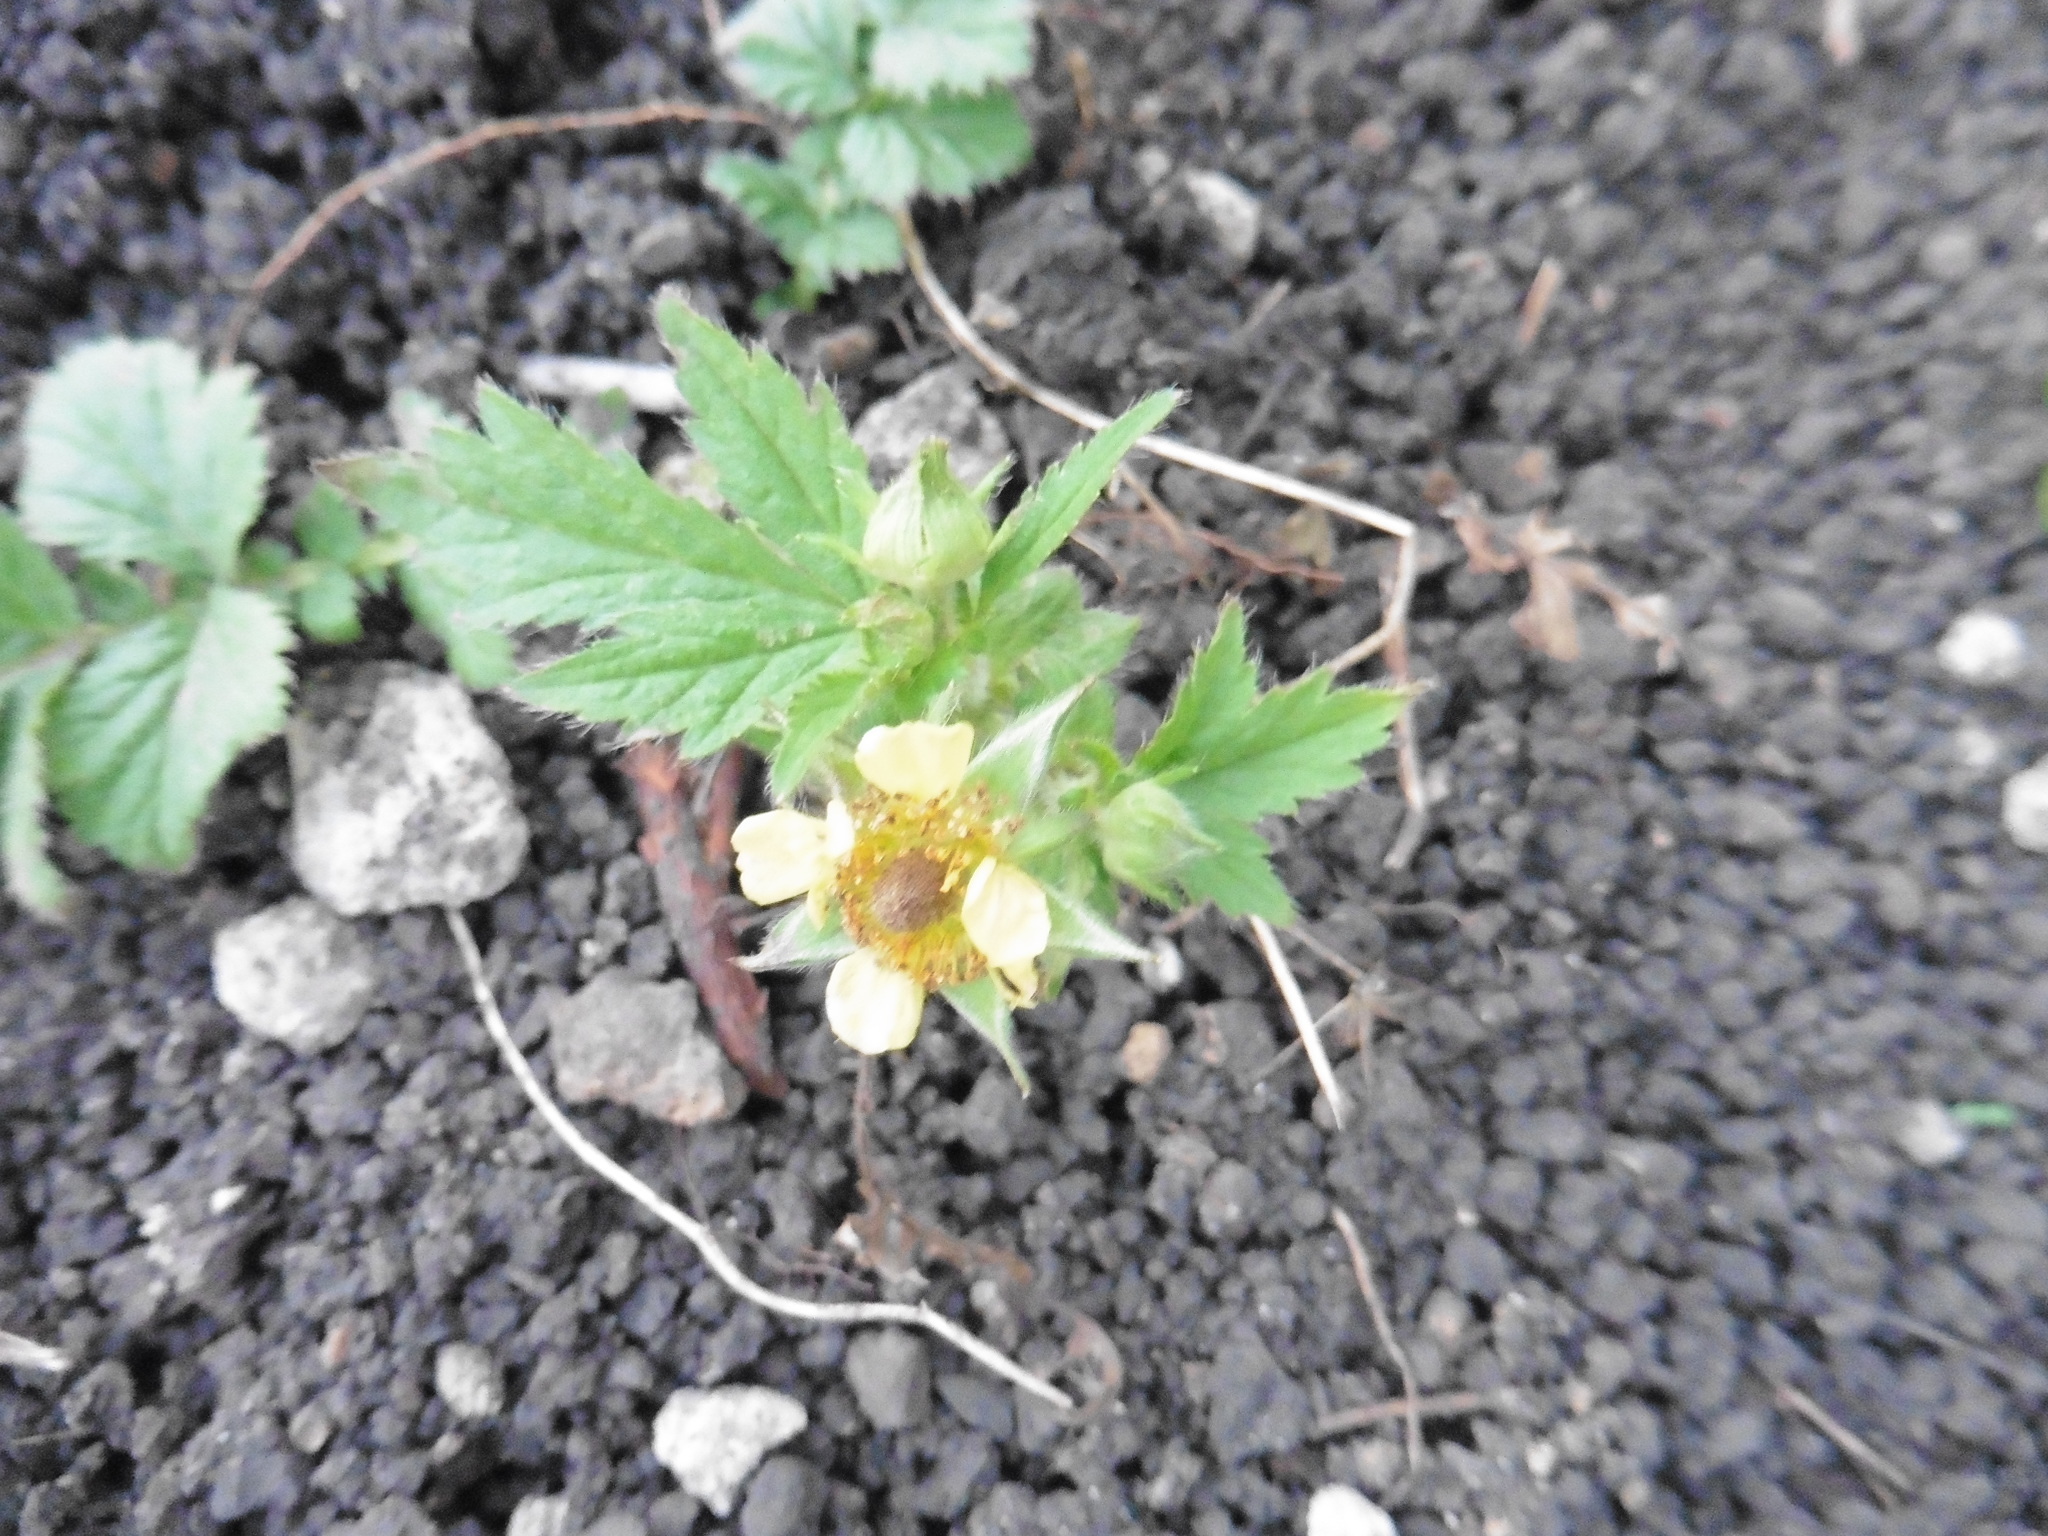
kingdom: Plantae
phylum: Tracheophyta
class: Magnoliopsida
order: Rosales
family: Rosaceae
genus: Geum
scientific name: Geum aleppicum
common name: Yellow avens
